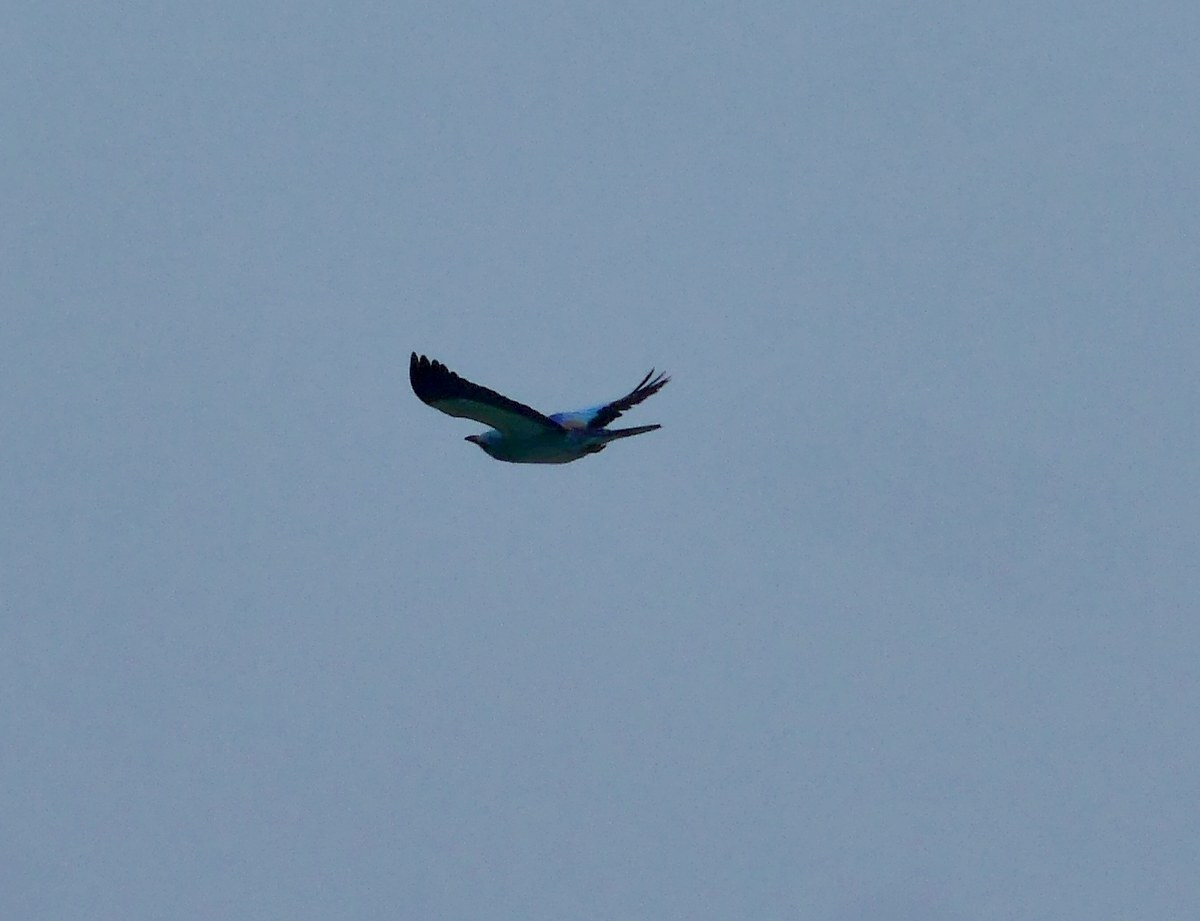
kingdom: Animalia
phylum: Chordata
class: Aves
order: Coraciiformes
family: Coraciidae
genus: Coracias
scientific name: Coracias garrulus
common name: European roller
